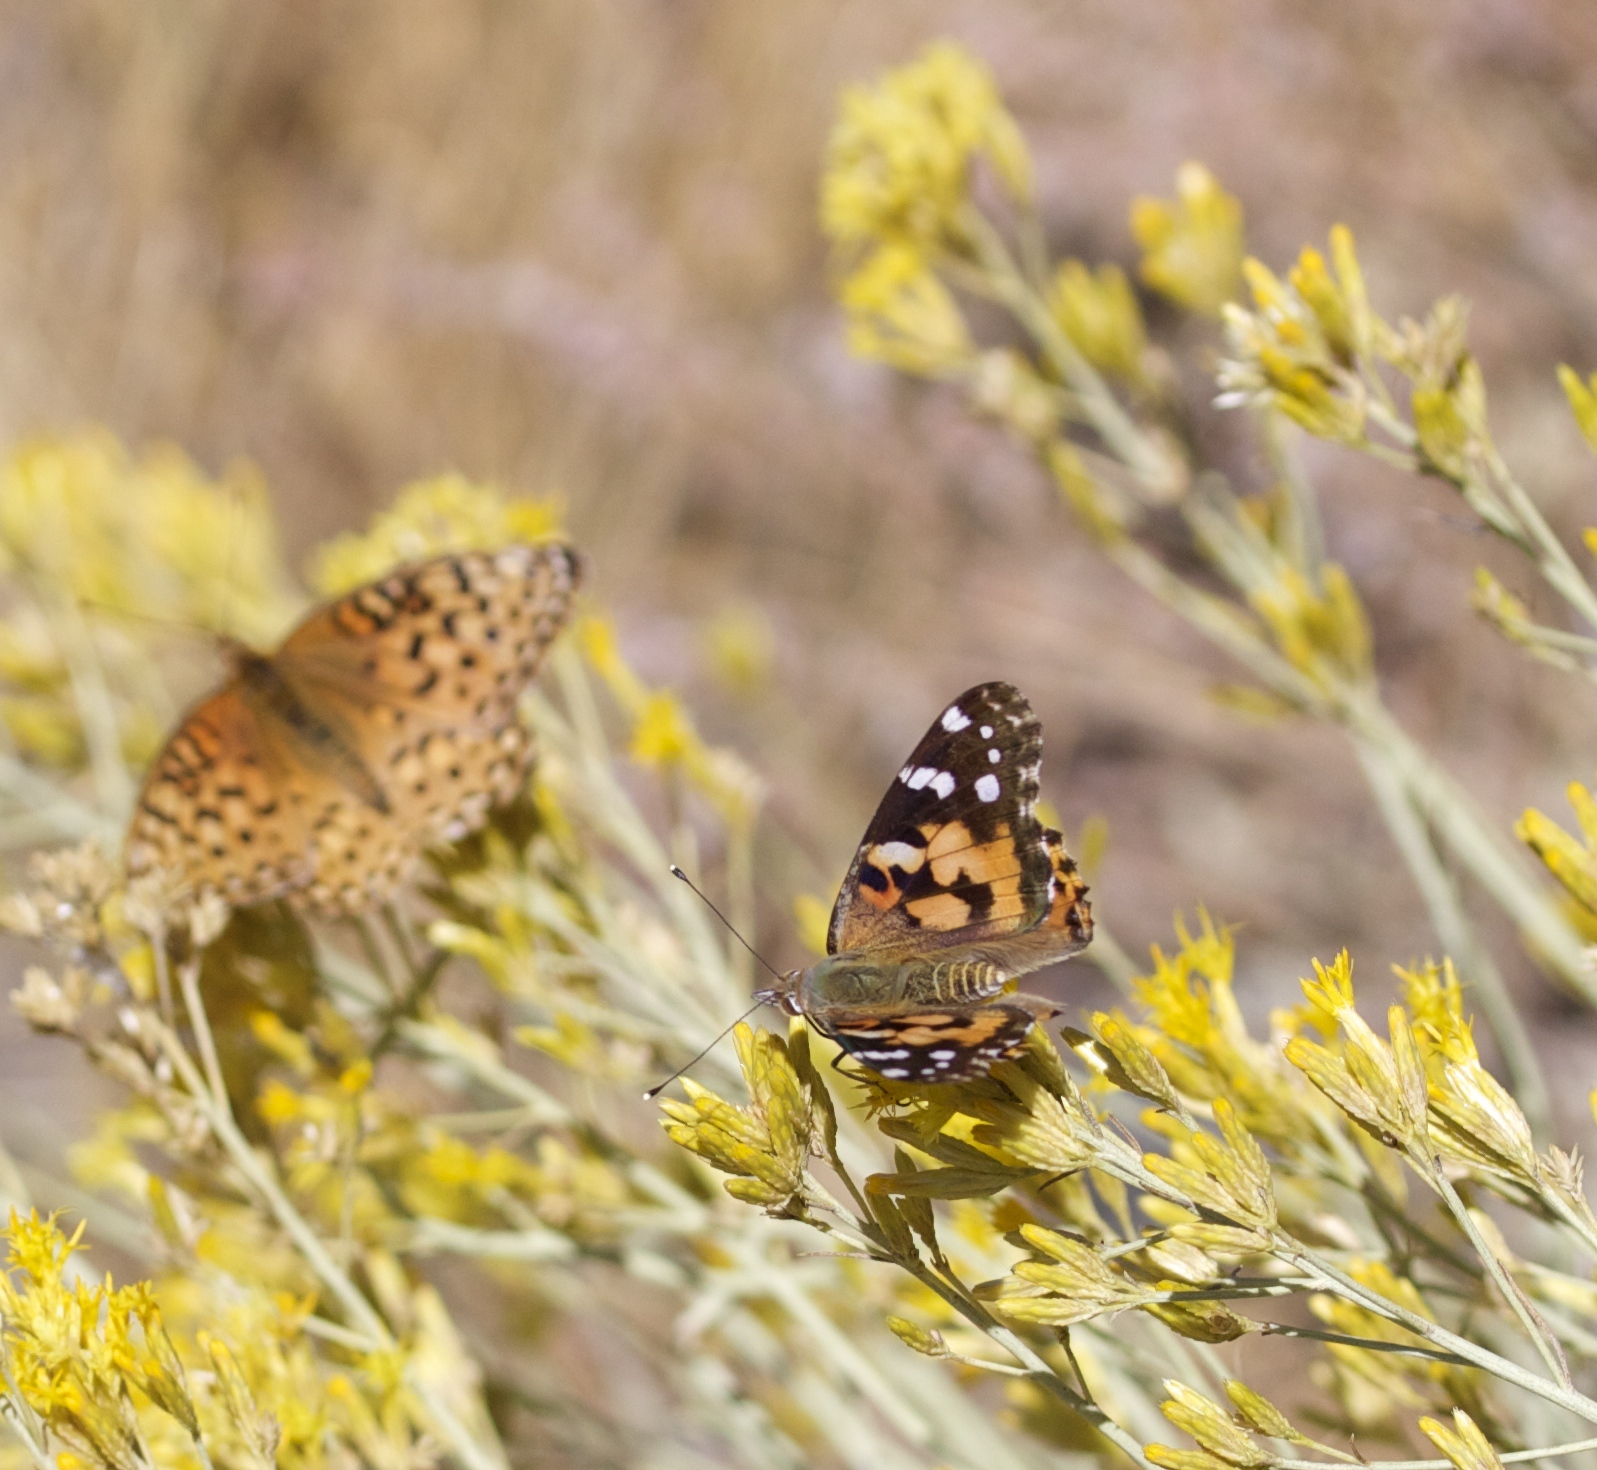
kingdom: Animalia
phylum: Arthropoda
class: Insecta
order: Lepidoptera
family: Nymphalidae
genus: Vanessa
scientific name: Vanessa cardui
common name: Painted lady
